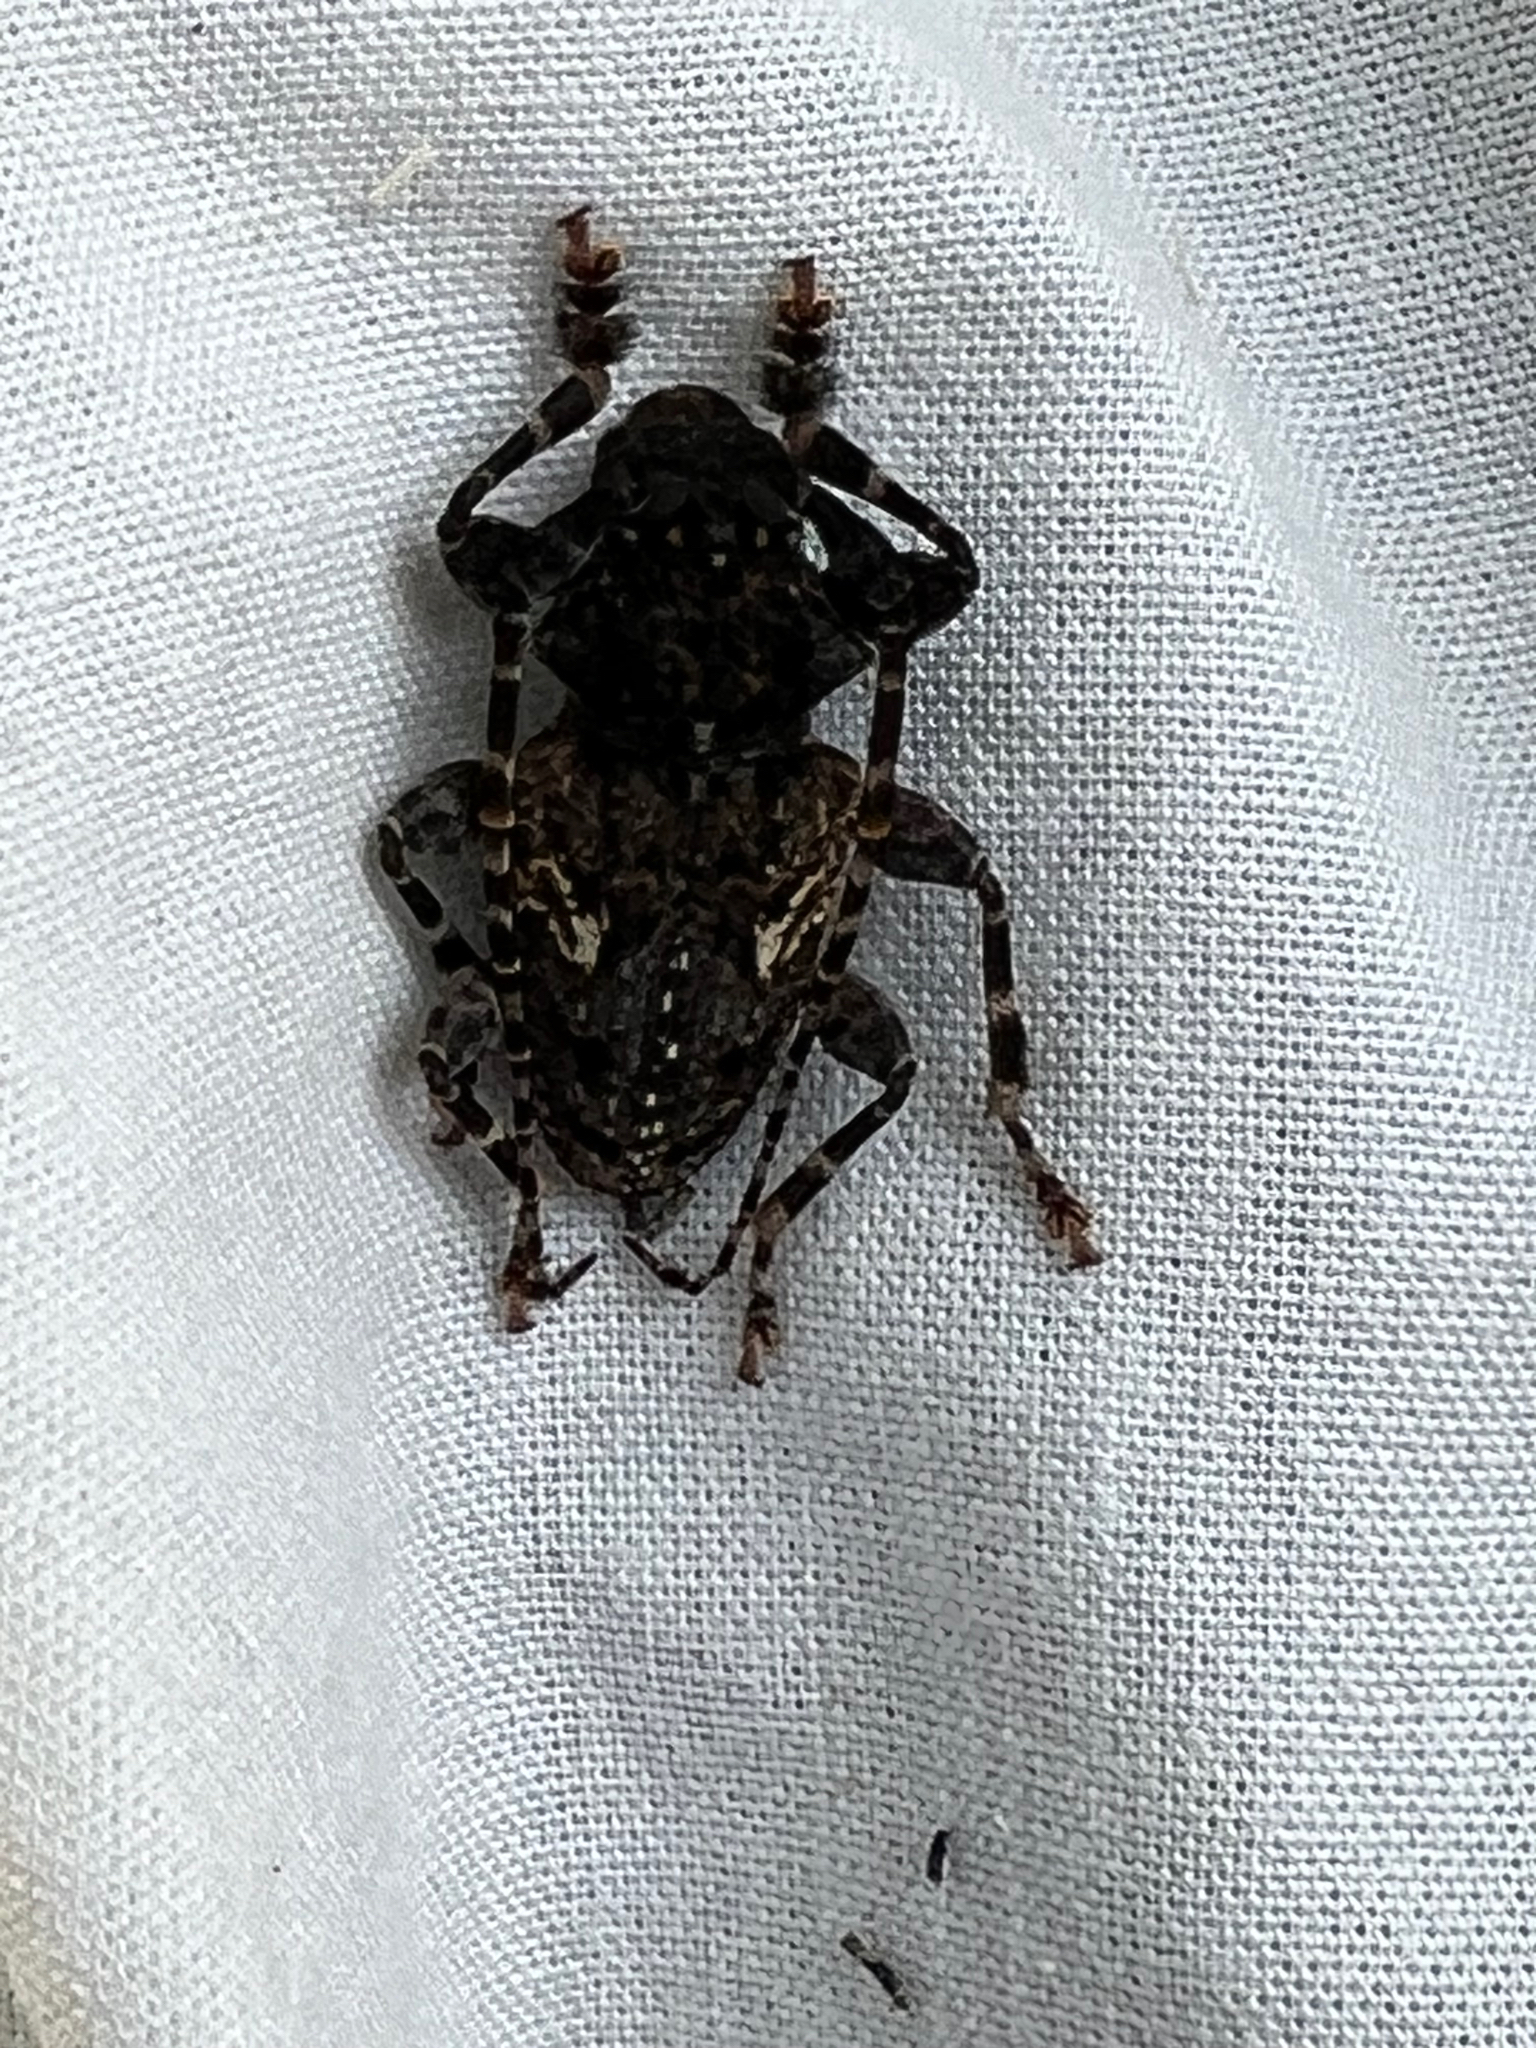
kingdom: Animalia
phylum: Arthropoda
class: Insecta
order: Coleoptera
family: Cerambycidae
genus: Psapharochrus
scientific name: Psapharochrus circumflexus
